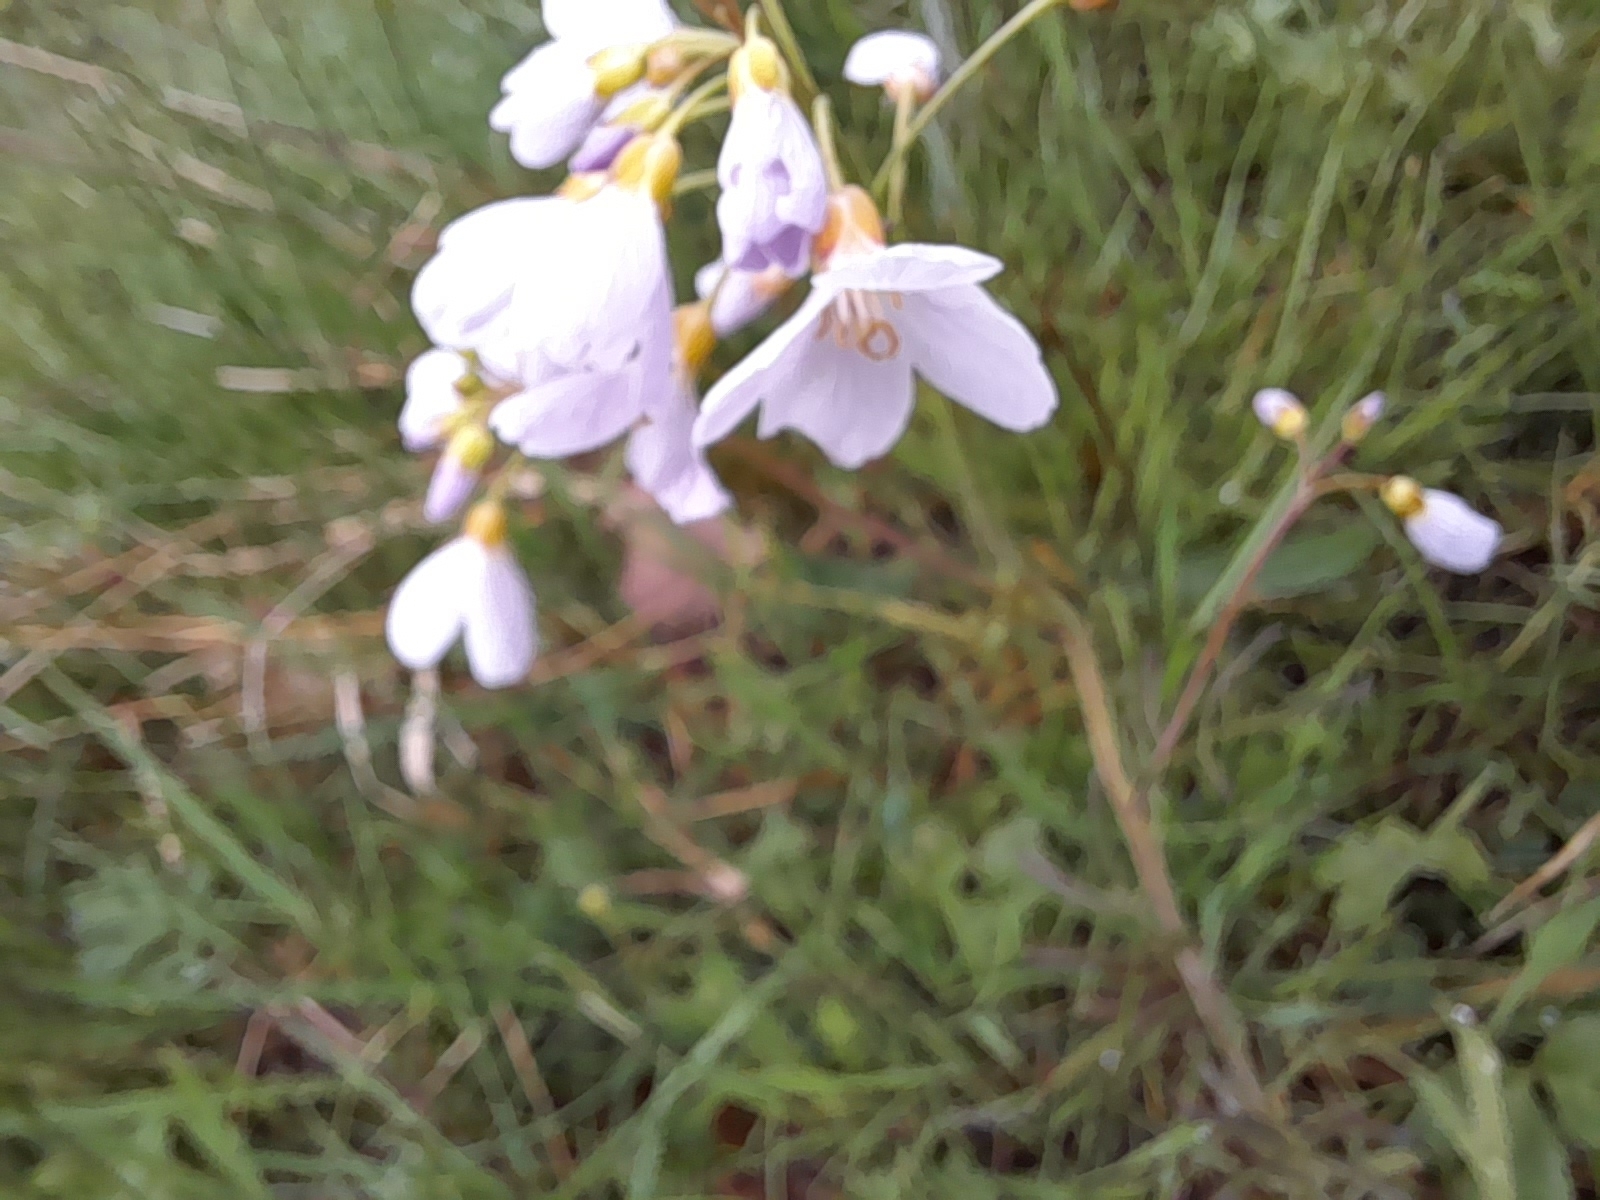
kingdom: Plantae
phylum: Tracheophyta
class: Magnoliopsida
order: Brassicales
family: Brassicaceae
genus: Cardamine
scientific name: Cardamine pratensis
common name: Cuckoo flower
